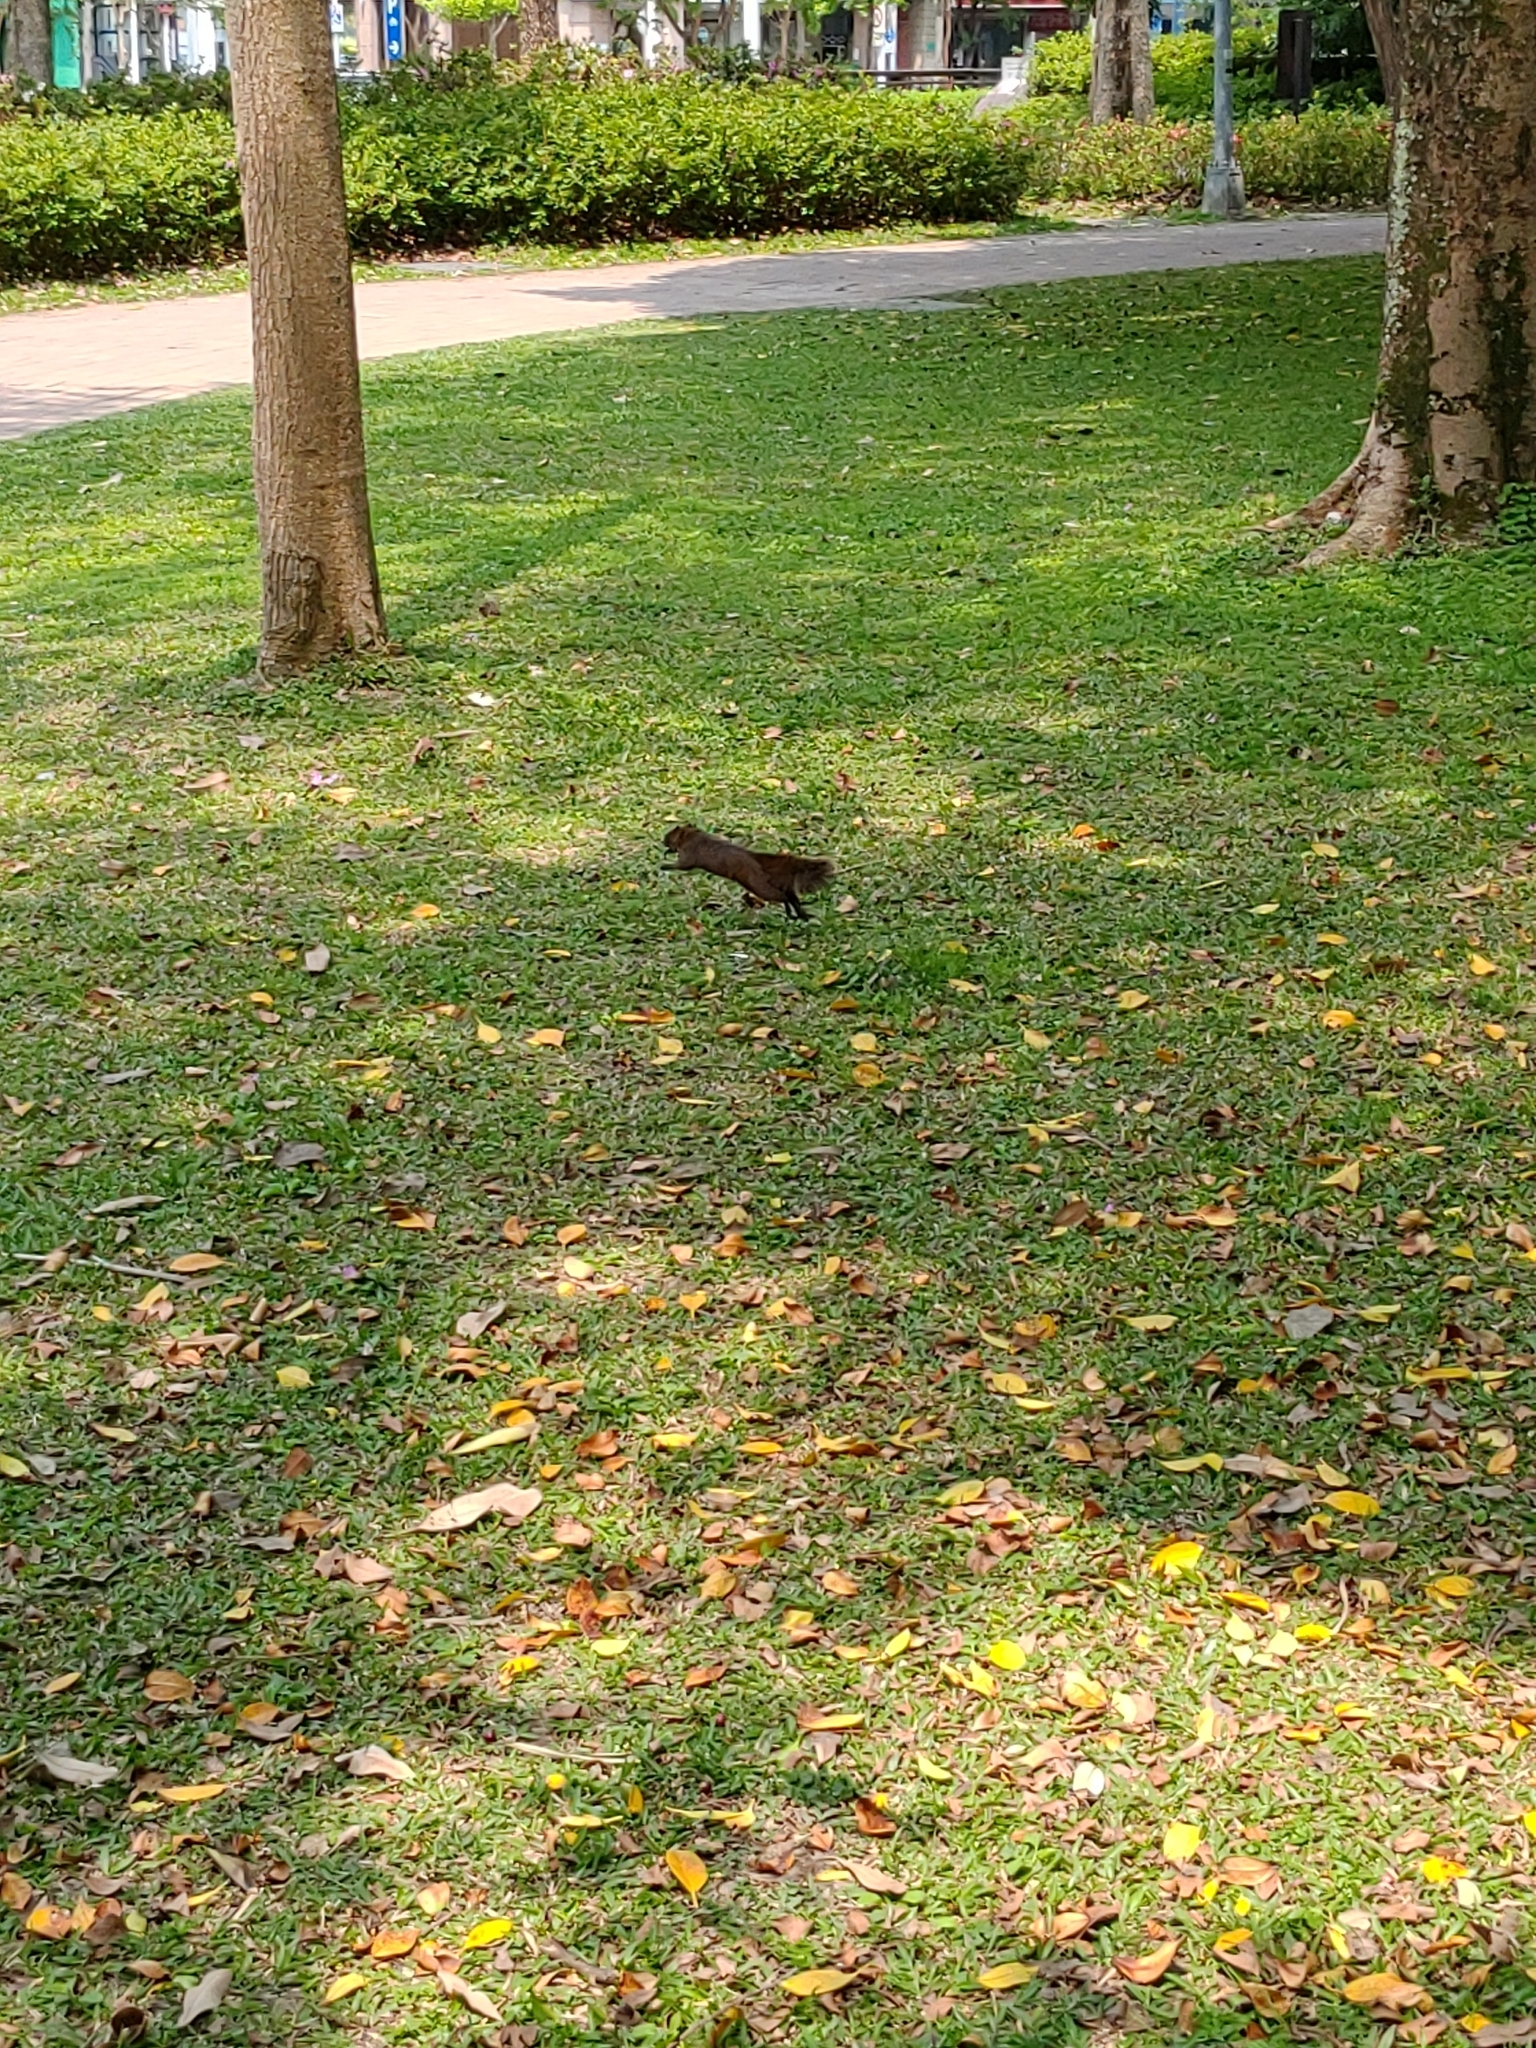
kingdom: Animalia
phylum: Chordata
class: Mammalia
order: Rodentia
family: Sciuridae
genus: Callosciurus
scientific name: Callosciurus erythraeus
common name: Pallas's squirrel
